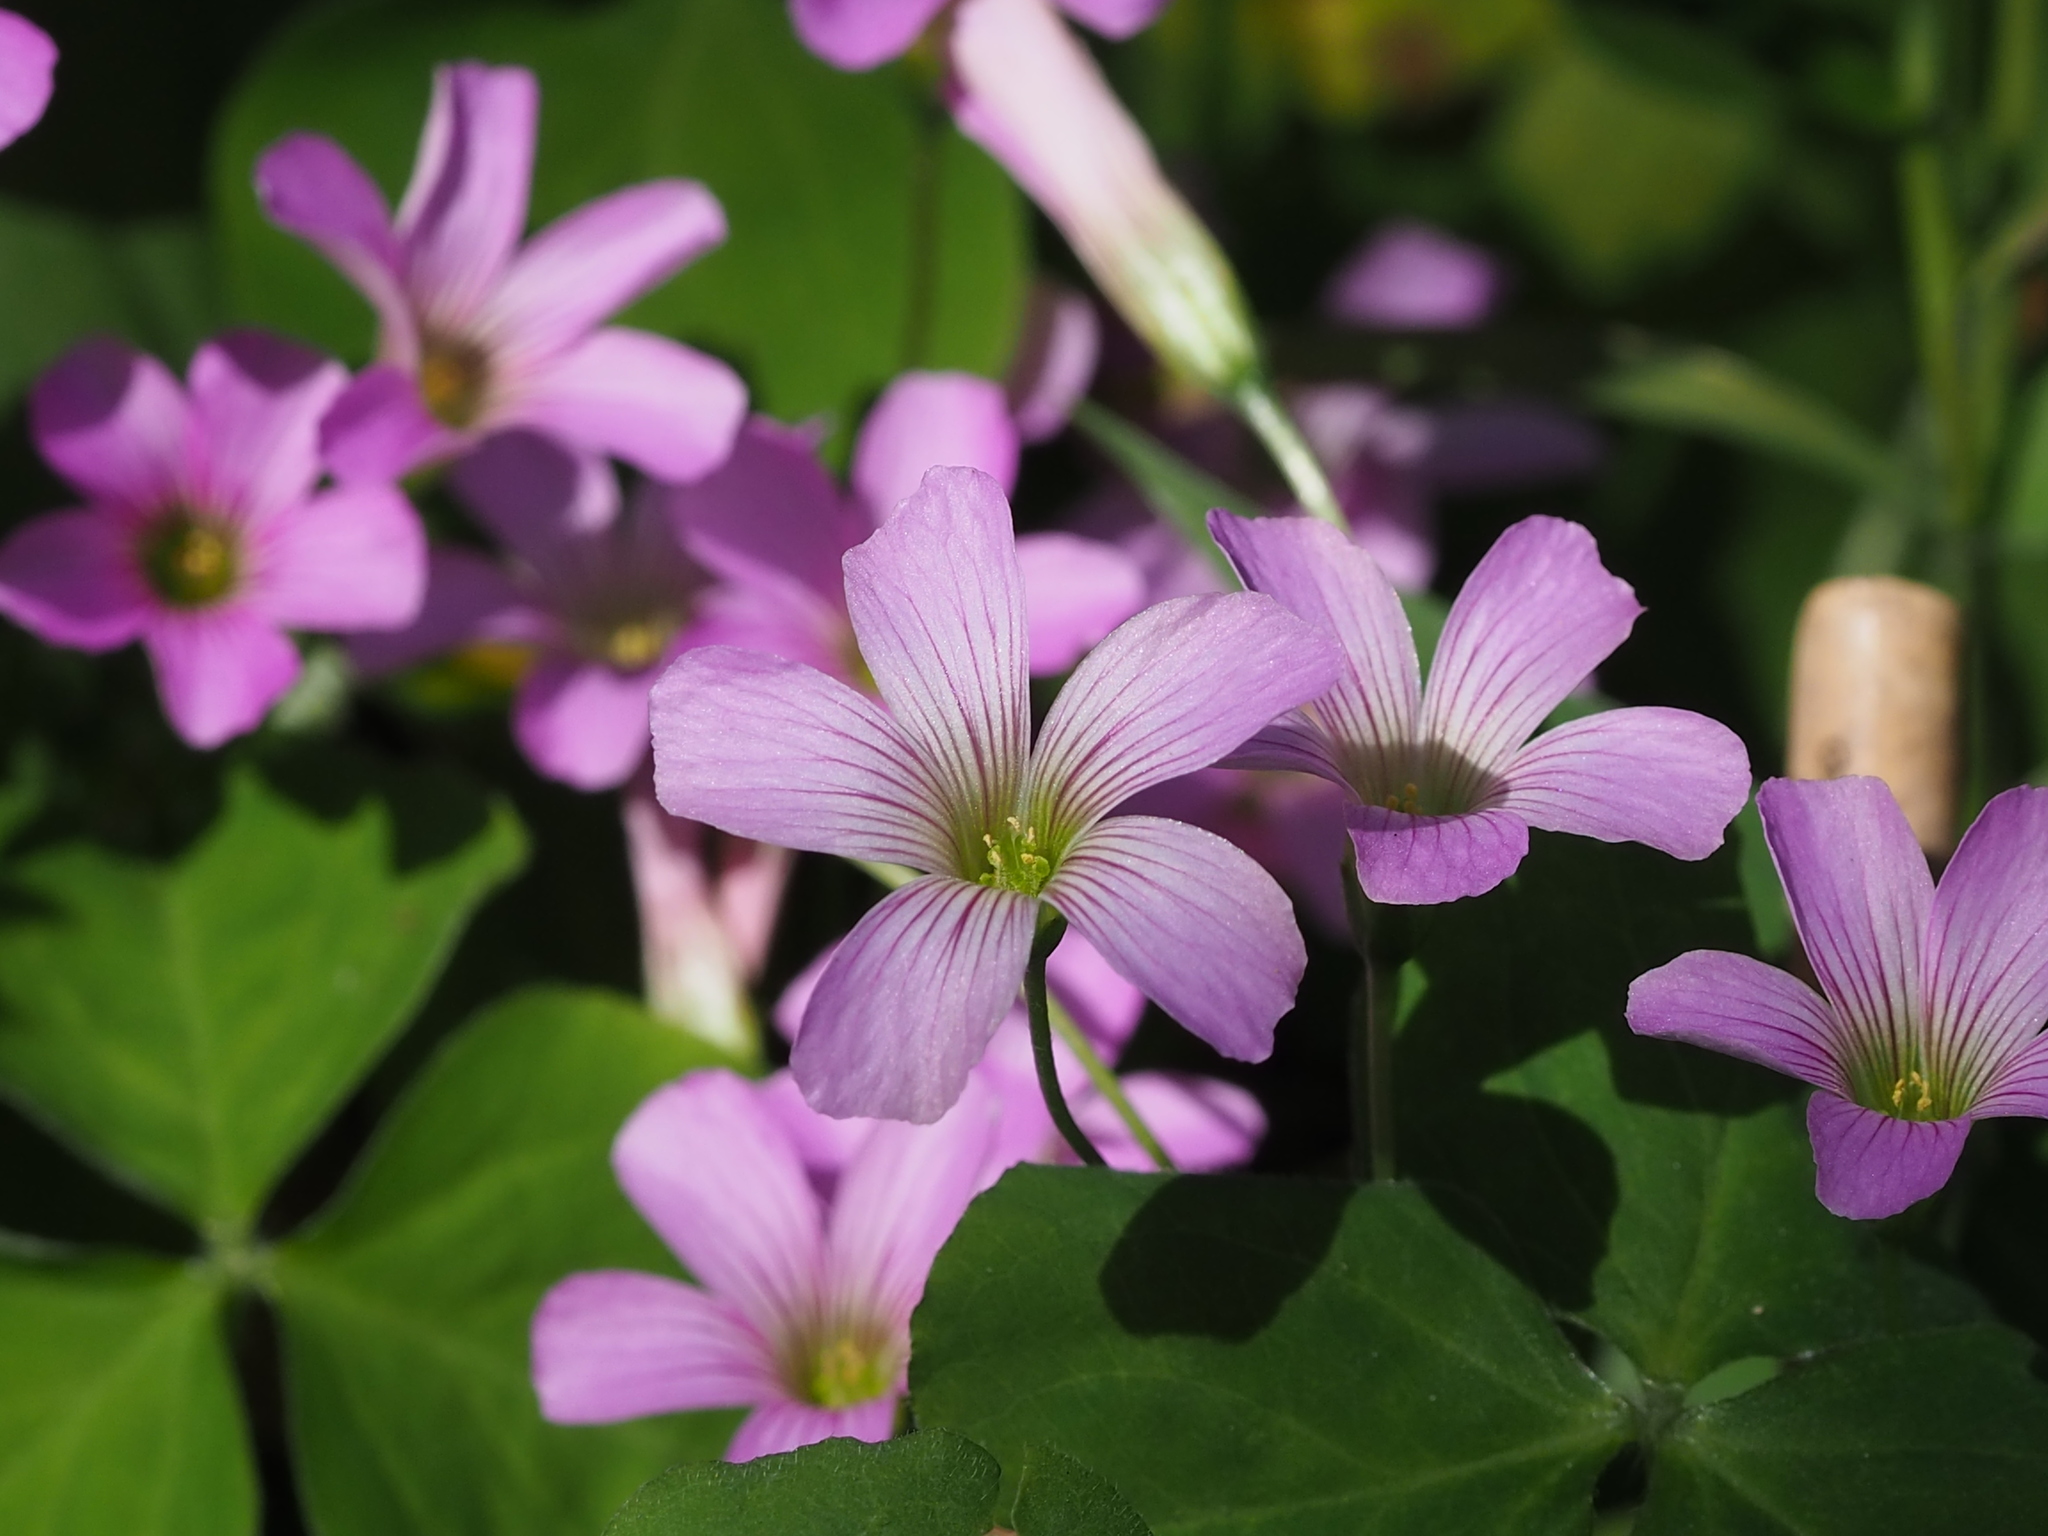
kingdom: Plantae
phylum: Tracheophyta
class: Magnoliopsida
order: Oxalidales
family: Oxalidaceae
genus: Oxalis
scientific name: Oxalis debilis
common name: Large-flowered pink-sorrel
